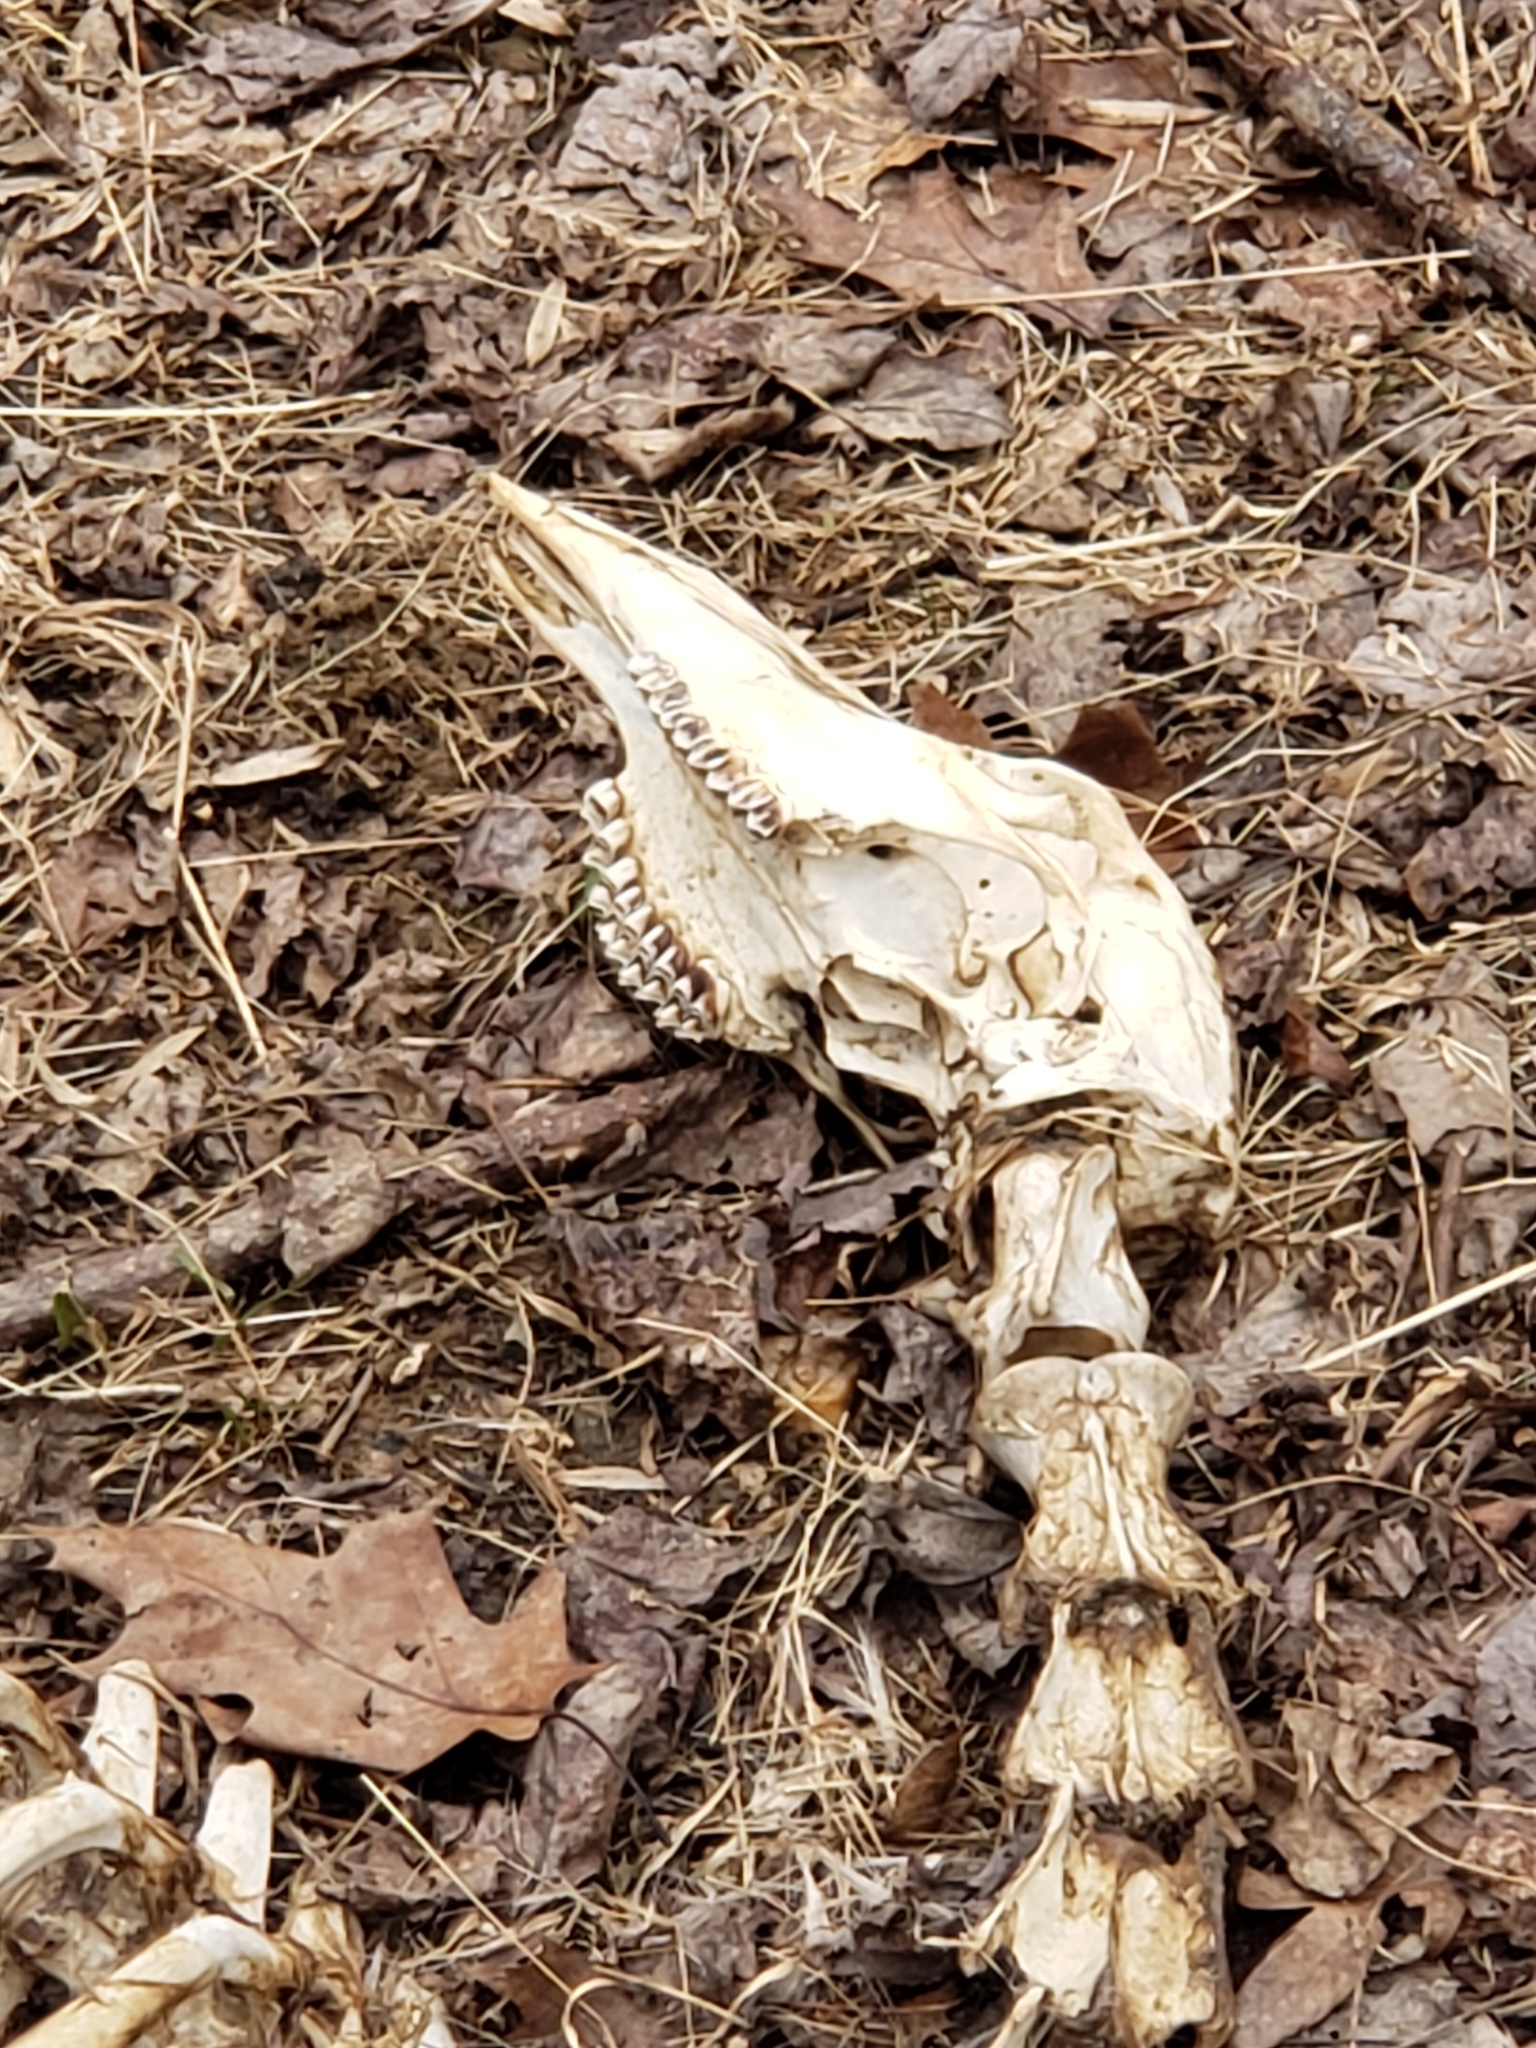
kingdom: Animalia
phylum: Chordata
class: Mammalia
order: Artiodactyla
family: Cervidae
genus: Odocoileus
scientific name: Odocoileus virginianus
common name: White-tailed deer
